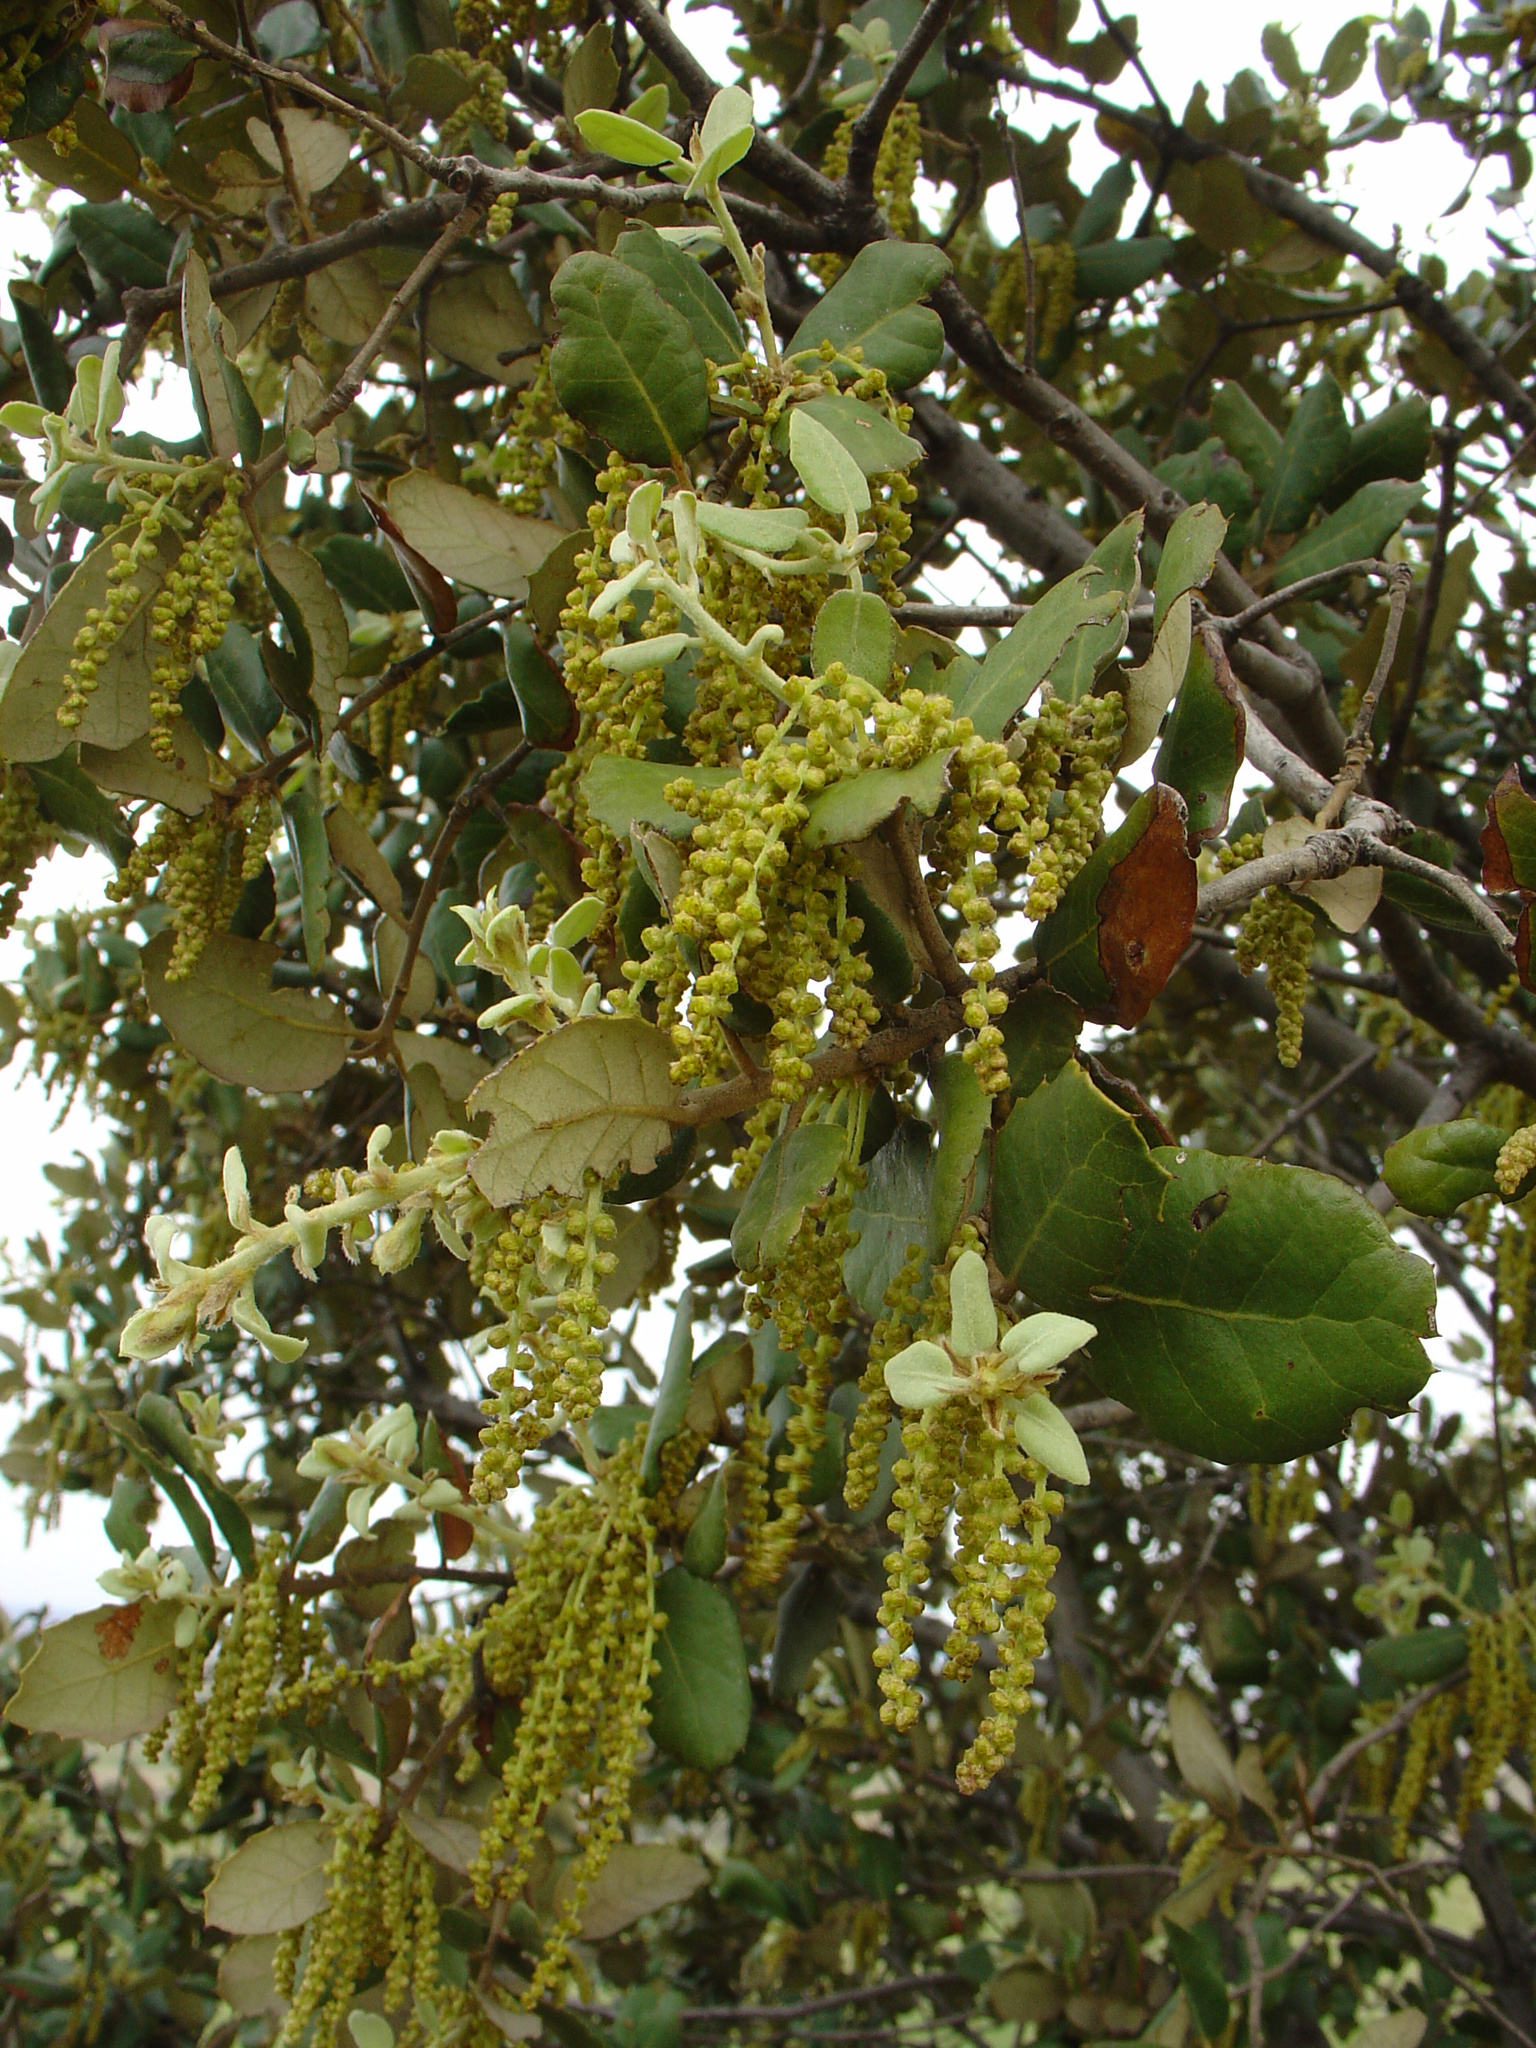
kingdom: Plantae
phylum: Tracheophyta
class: Magnoliopsida
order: Fagales
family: Fagaceae
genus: Quercus
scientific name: Quercus rotundifolia
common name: Holm oak
